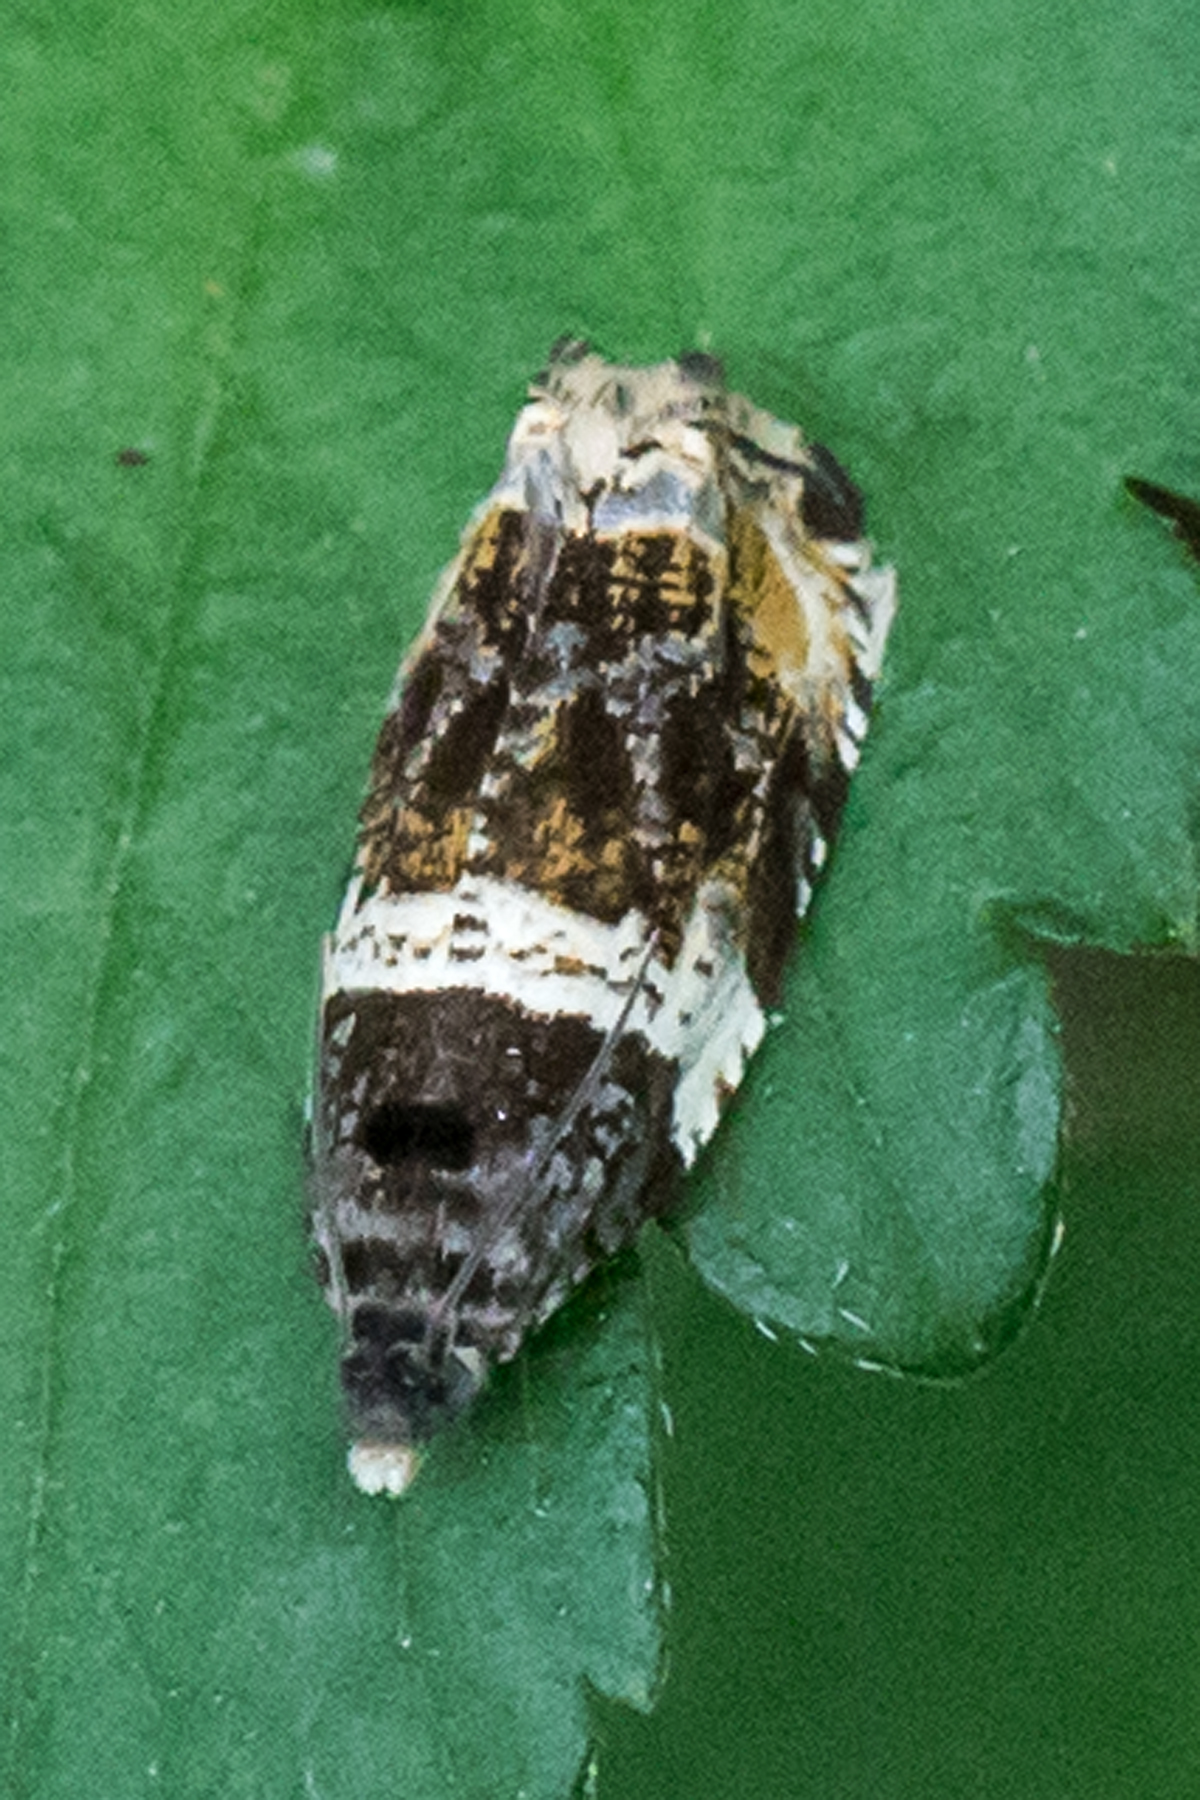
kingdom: Animalia
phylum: Arthropoda
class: Insecta
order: Lepidoptera
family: Tortricidae
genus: Olethreutes
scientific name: Olethreutes fasciatana
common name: Banded olethreutes moth
